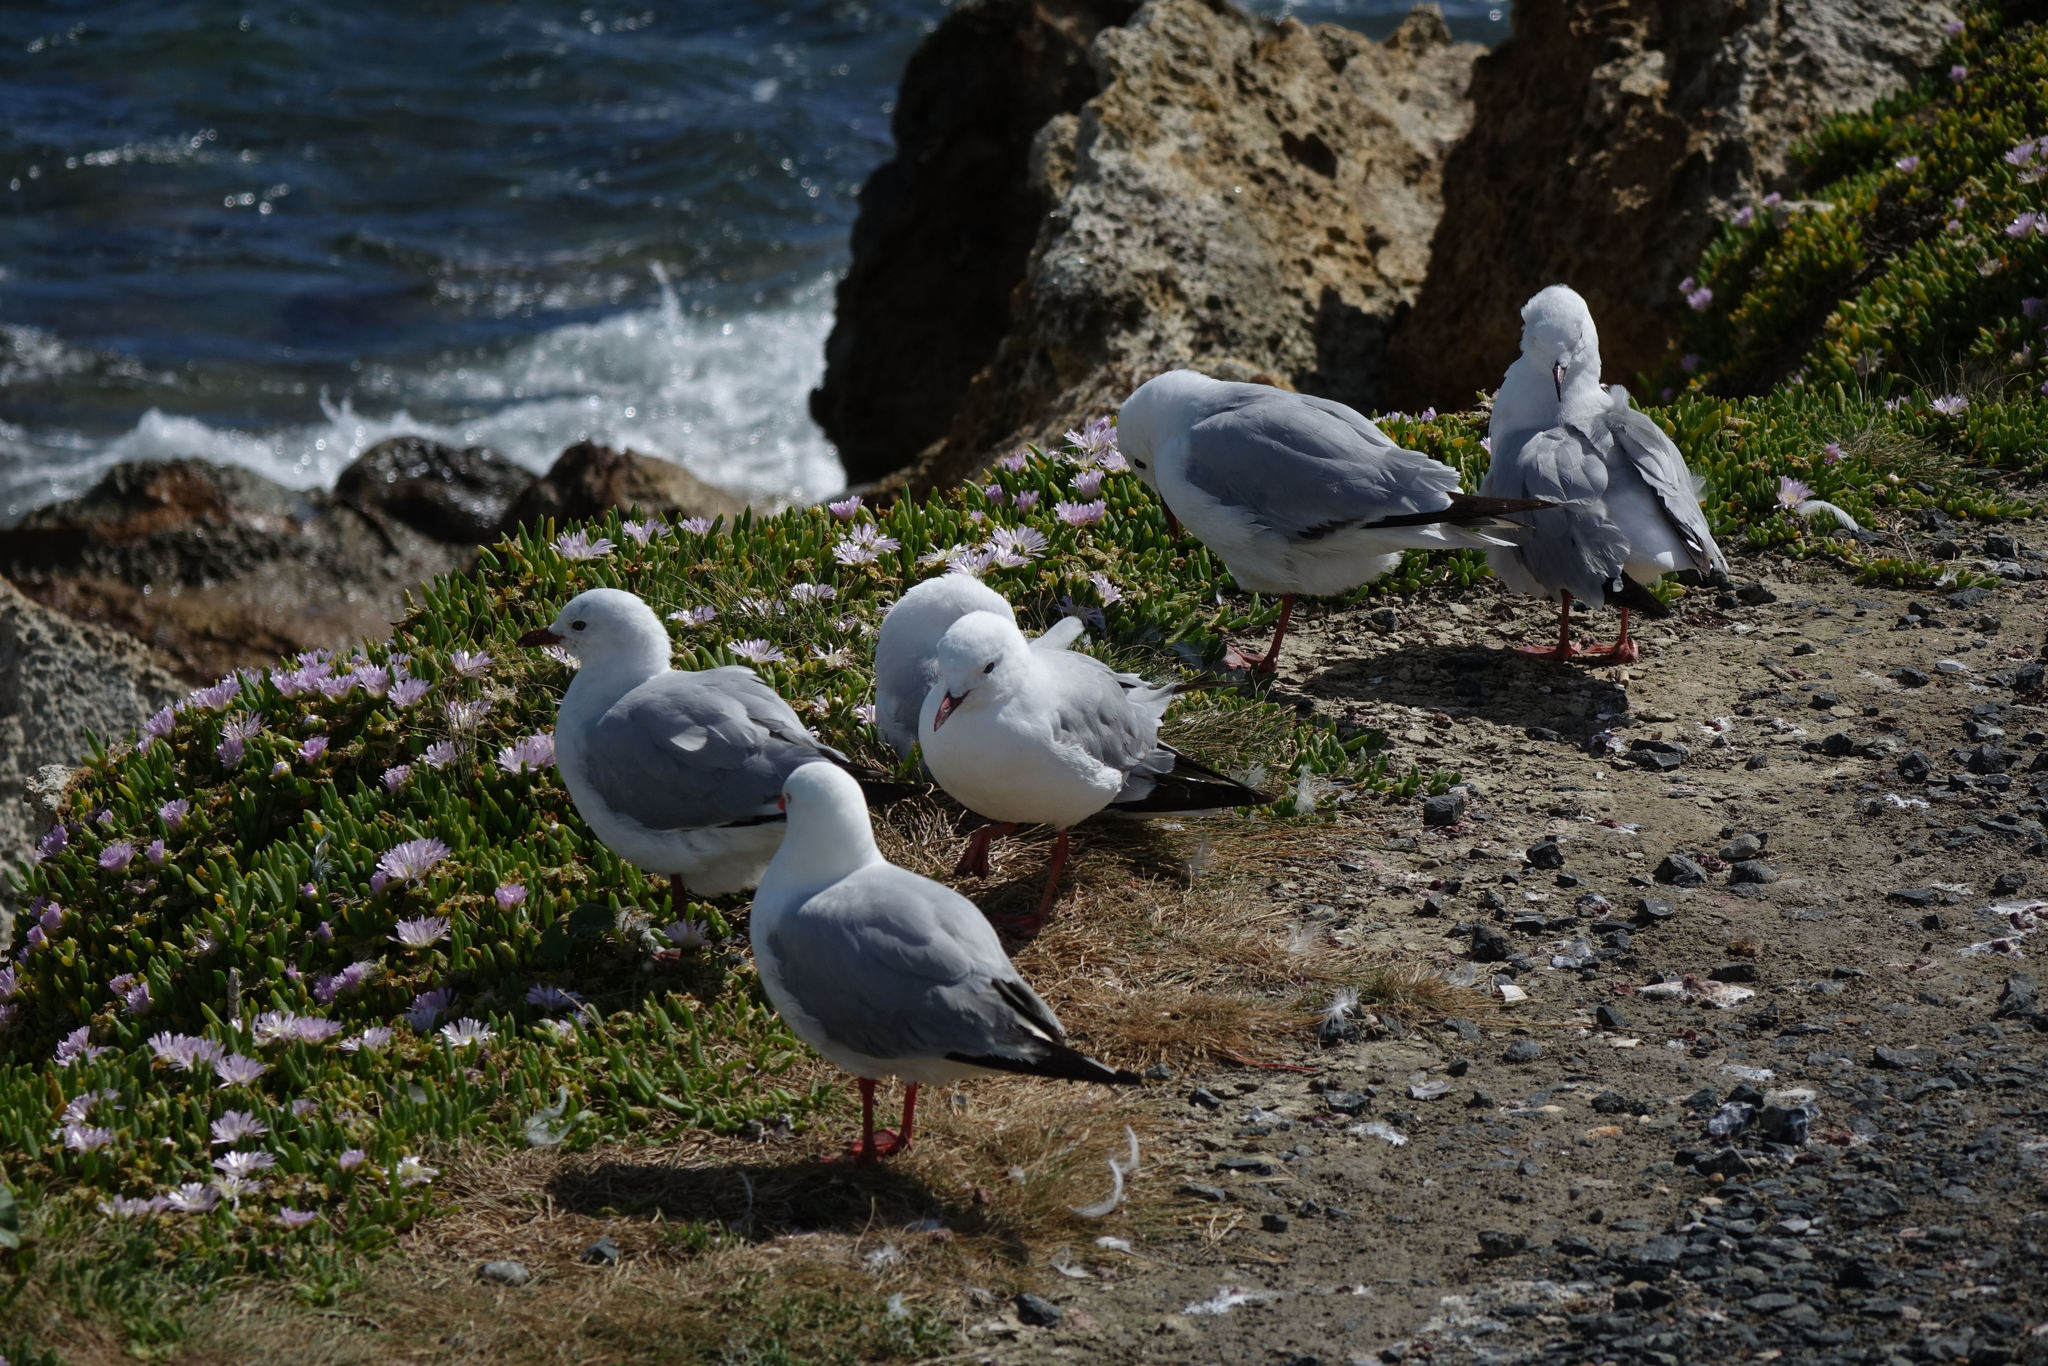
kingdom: Animalia
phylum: Chordata
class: Aves
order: Charadriiformes
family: Laridae
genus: Chroicocephalus
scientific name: Chroicocephalus novaehollandiae
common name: Silver gull
